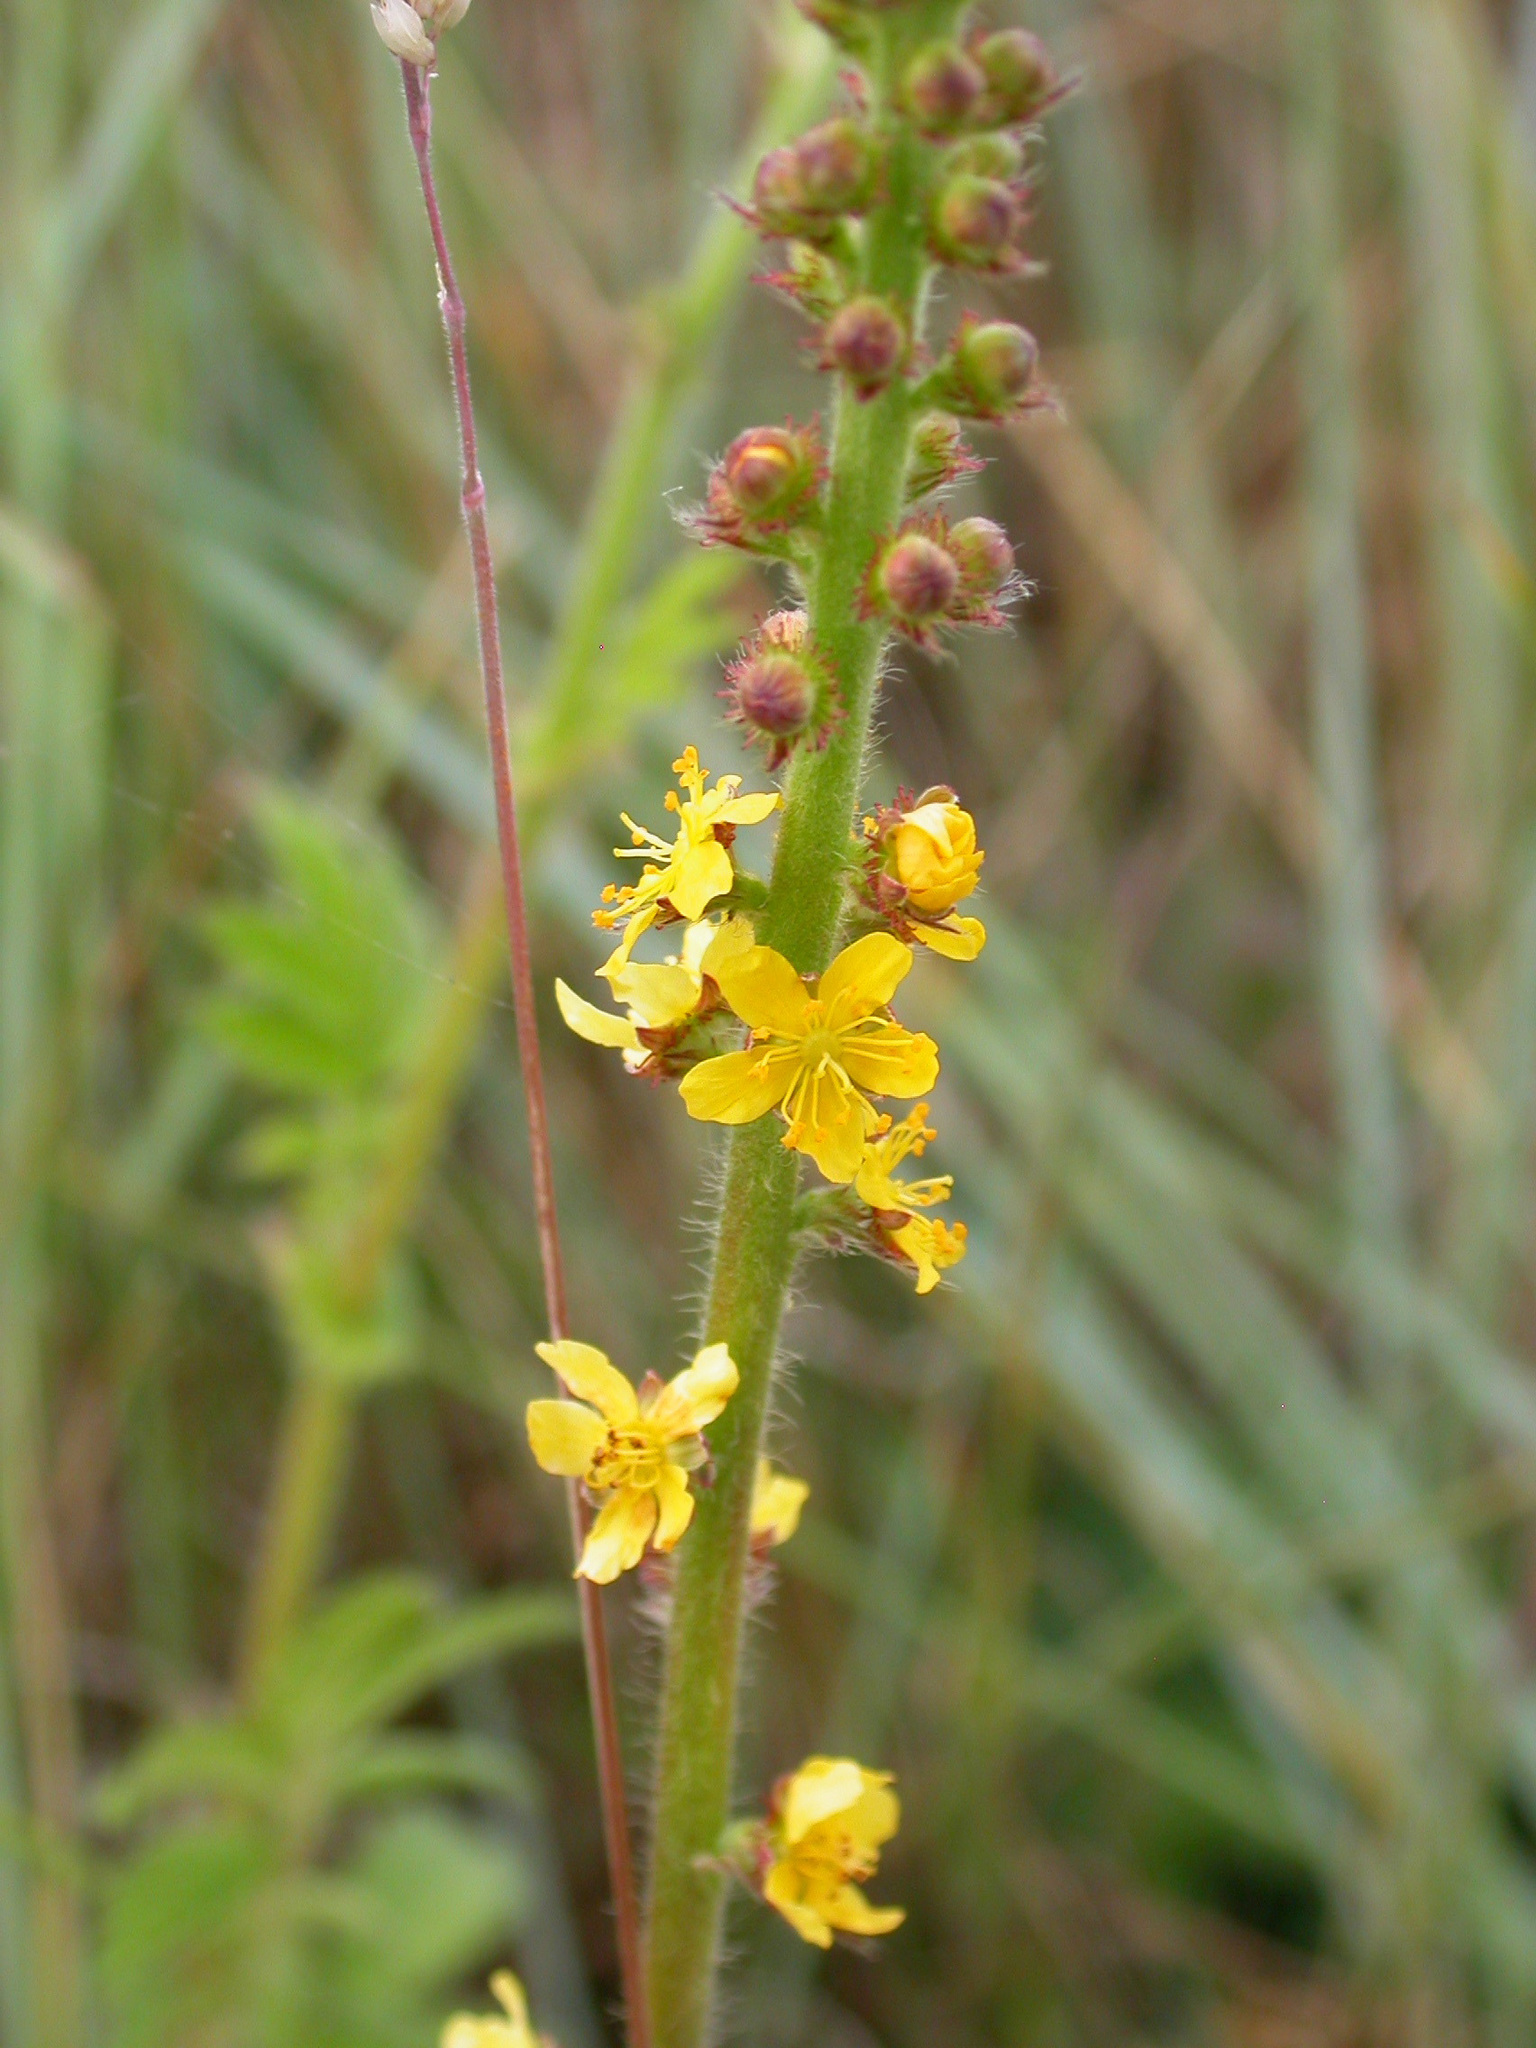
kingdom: Plantae
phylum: Tracheophyta
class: Magnoliopsida
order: Rosales
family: Rosaceae
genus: Agrimonia
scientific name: Agrimonia eupatoria
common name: Agrimony
